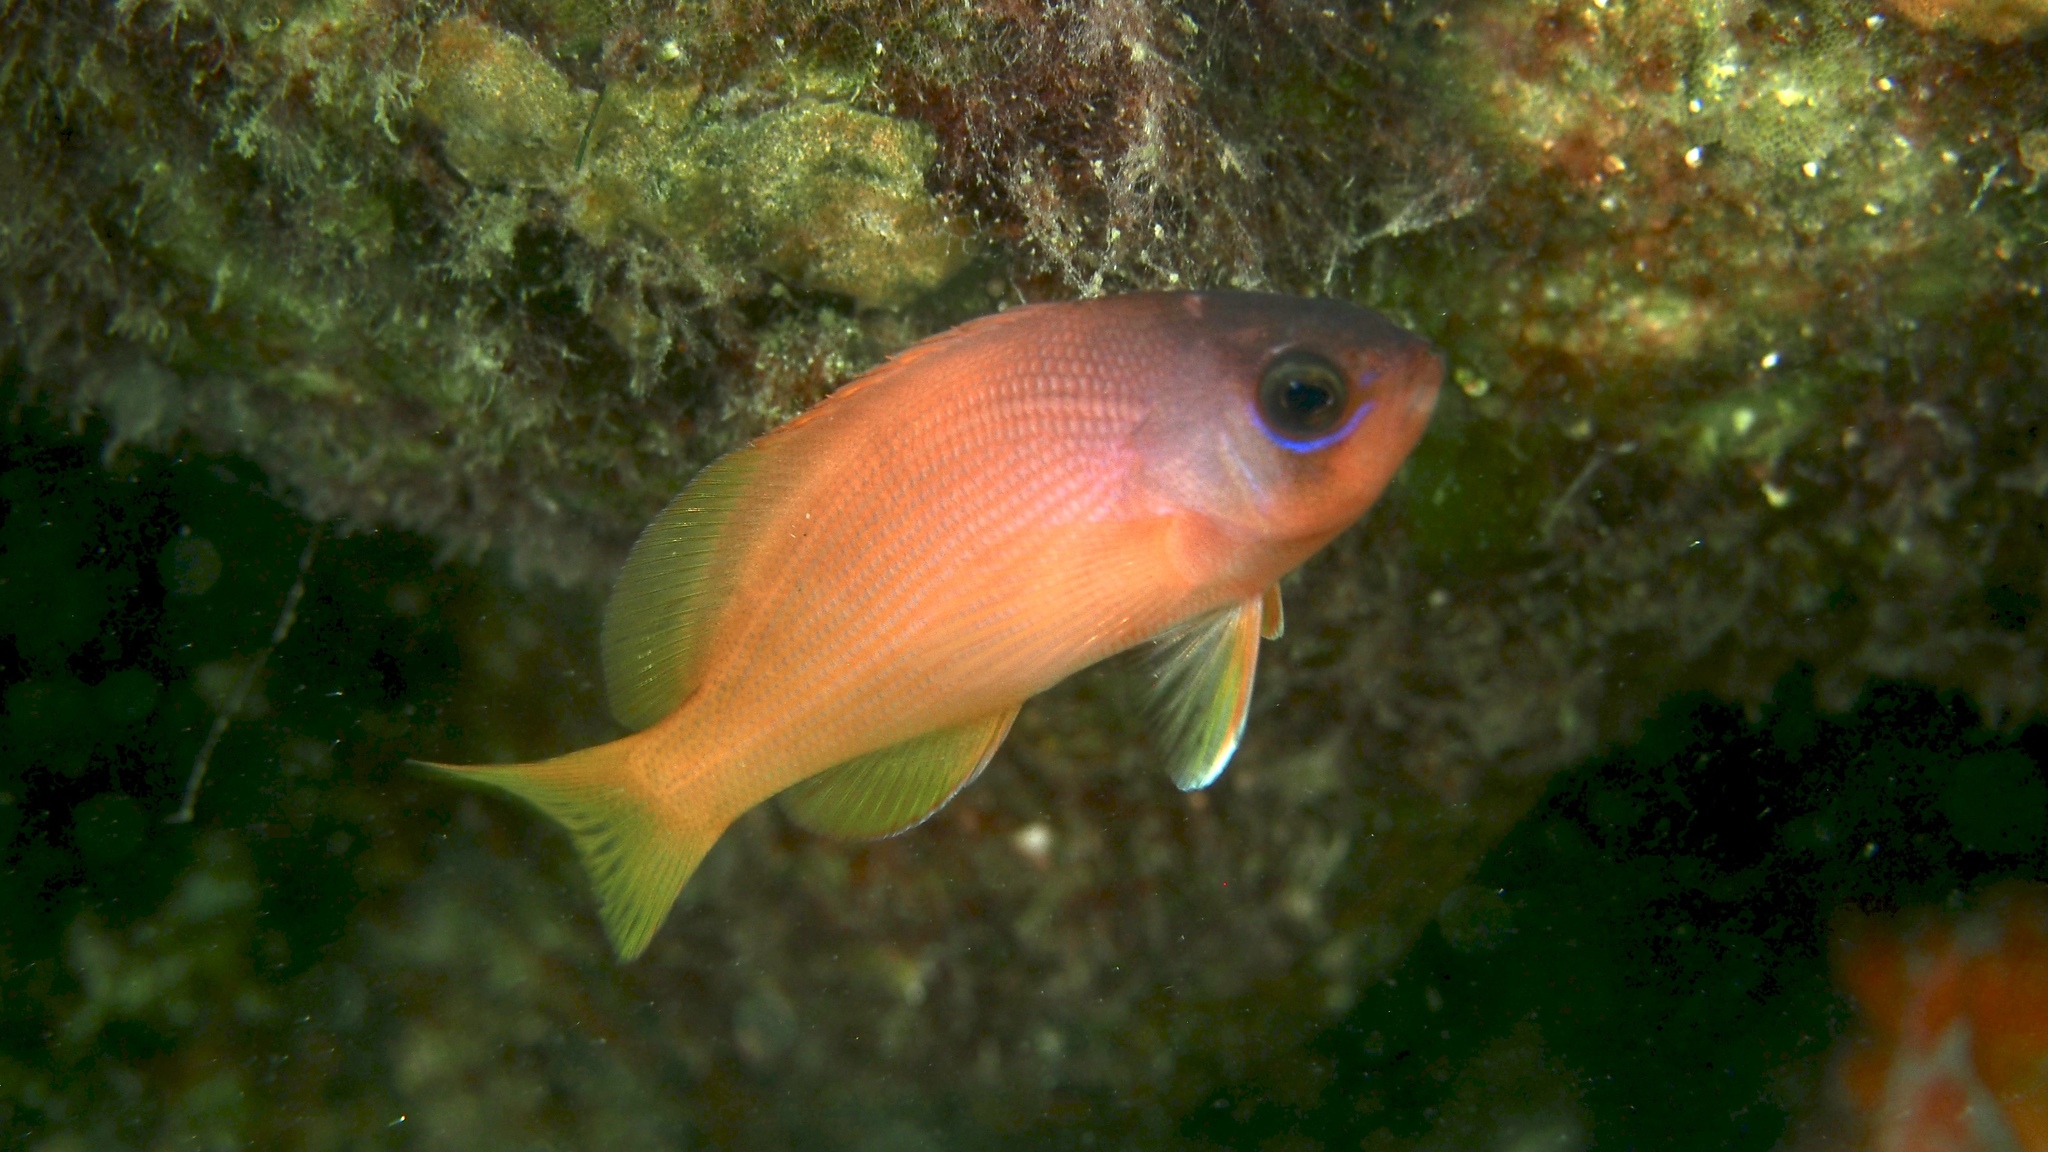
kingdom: Animalia
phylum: Chordata
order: Perciformes
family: Serranidae
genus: Caesioperca
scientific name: Caesioperca rasor
